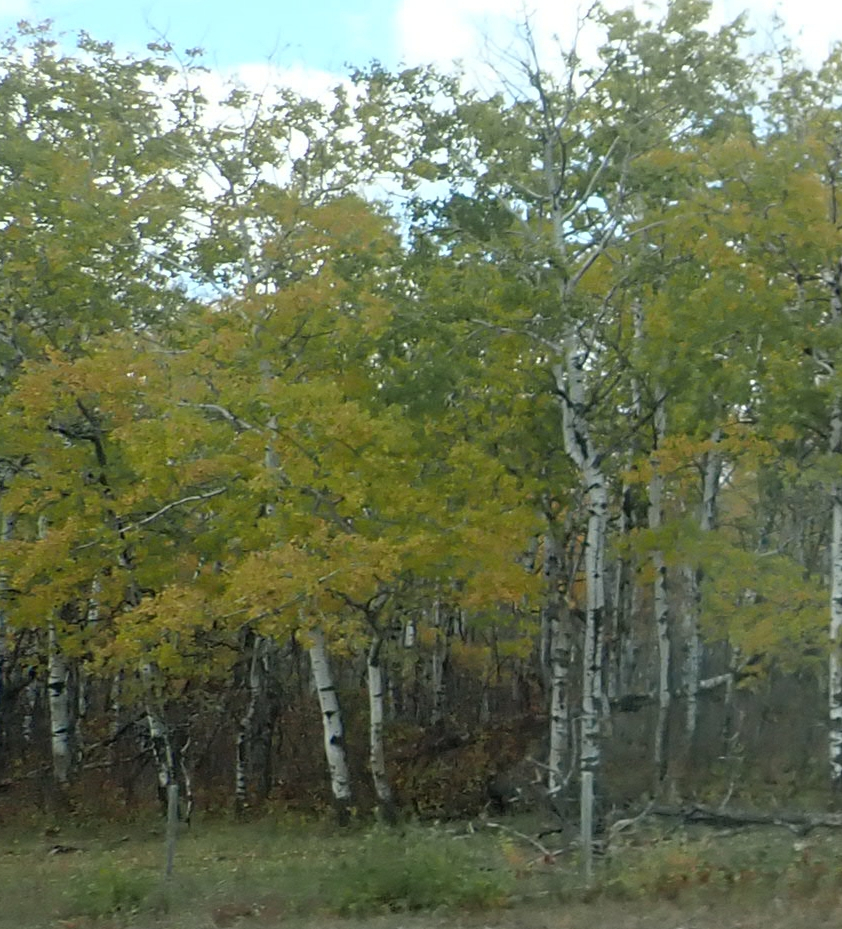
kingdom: Plantae
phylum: Tracheophyta
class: Magnoliopsida
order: Malpighiales
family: Salicaceae
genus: Populus
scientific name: Populus tremuloides
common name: Quaking aspen
